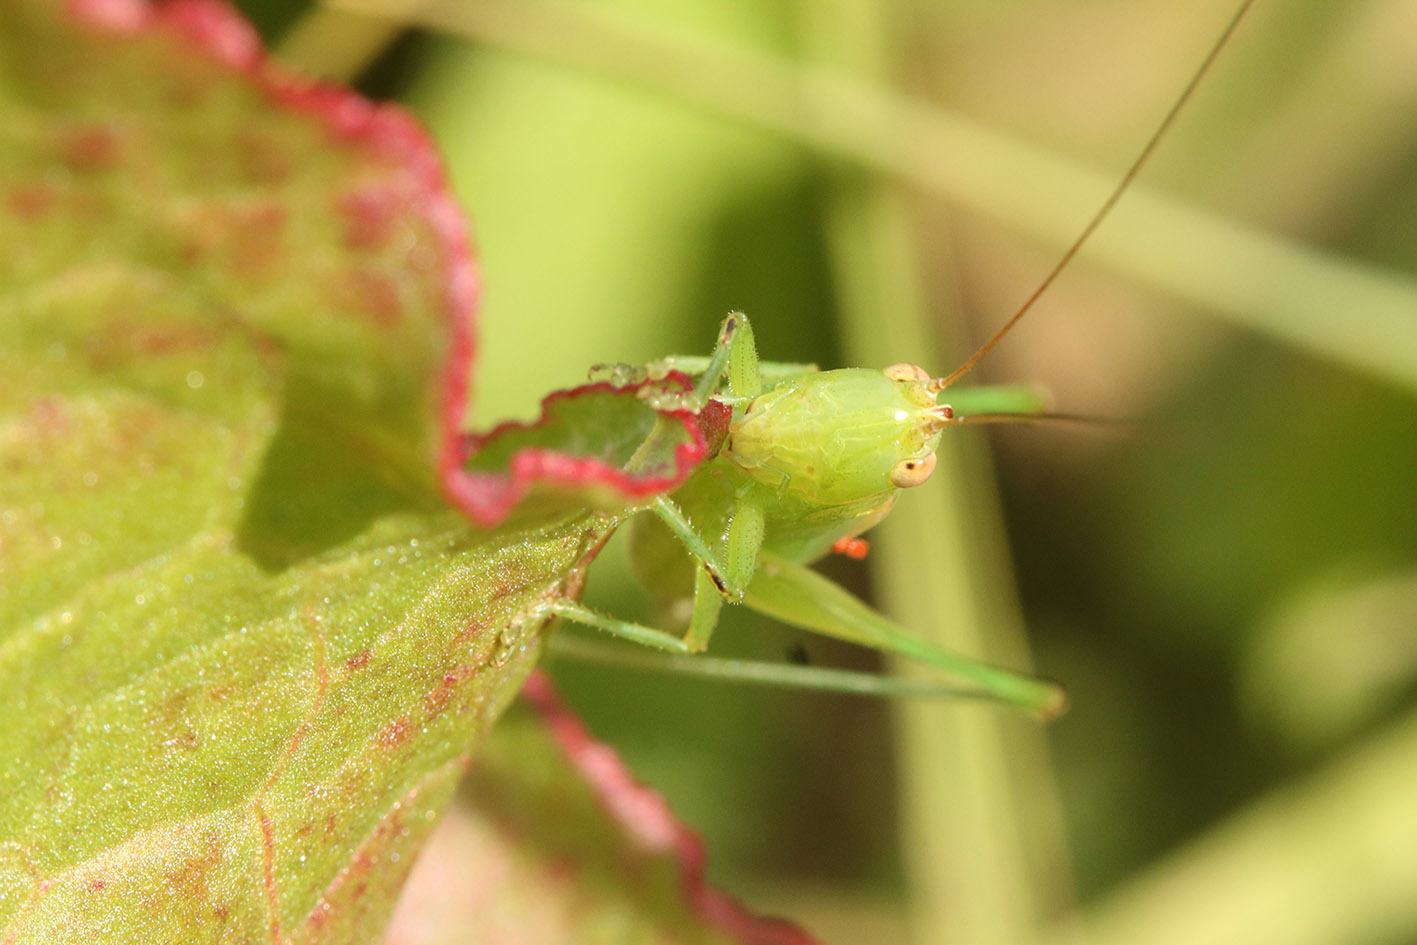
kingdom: Animalia
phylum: Arthropoda
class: Insecta
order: Orthoptera
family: Tettigoniidae
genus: Conocephalus
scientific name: Conocephalus longipes
